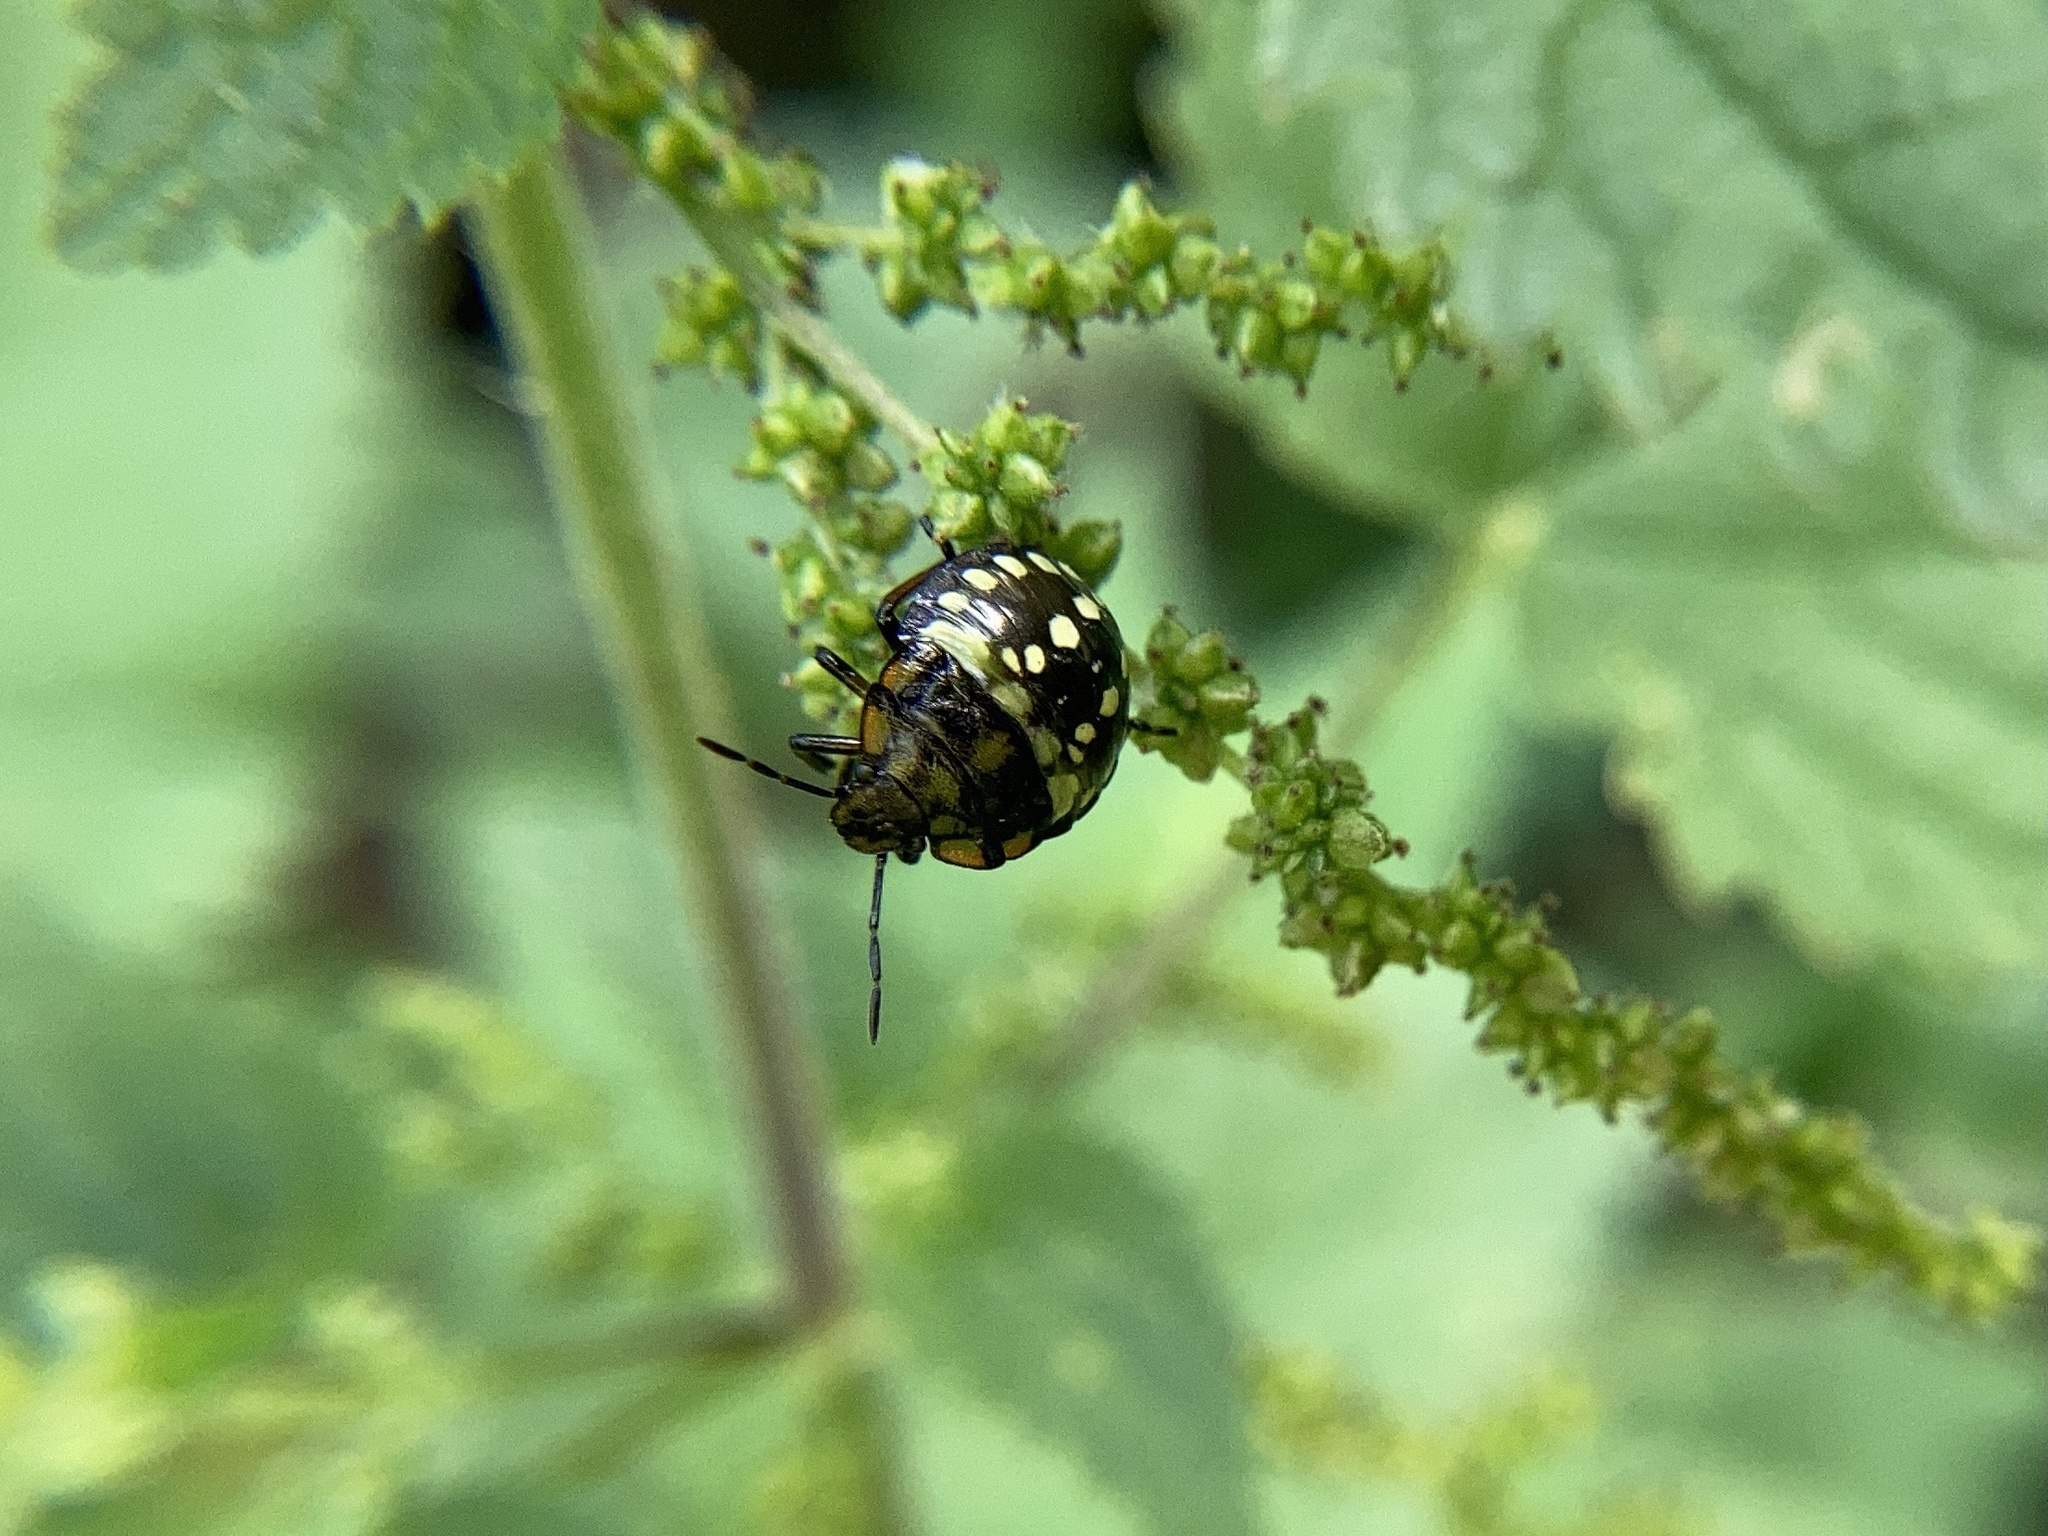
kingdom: Animalia
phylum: Arthropoda
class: Insecta
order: Hemiptera
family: Pentatomidae
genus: Nezara
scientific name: Nezara viridula
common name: Southern green stink bug
